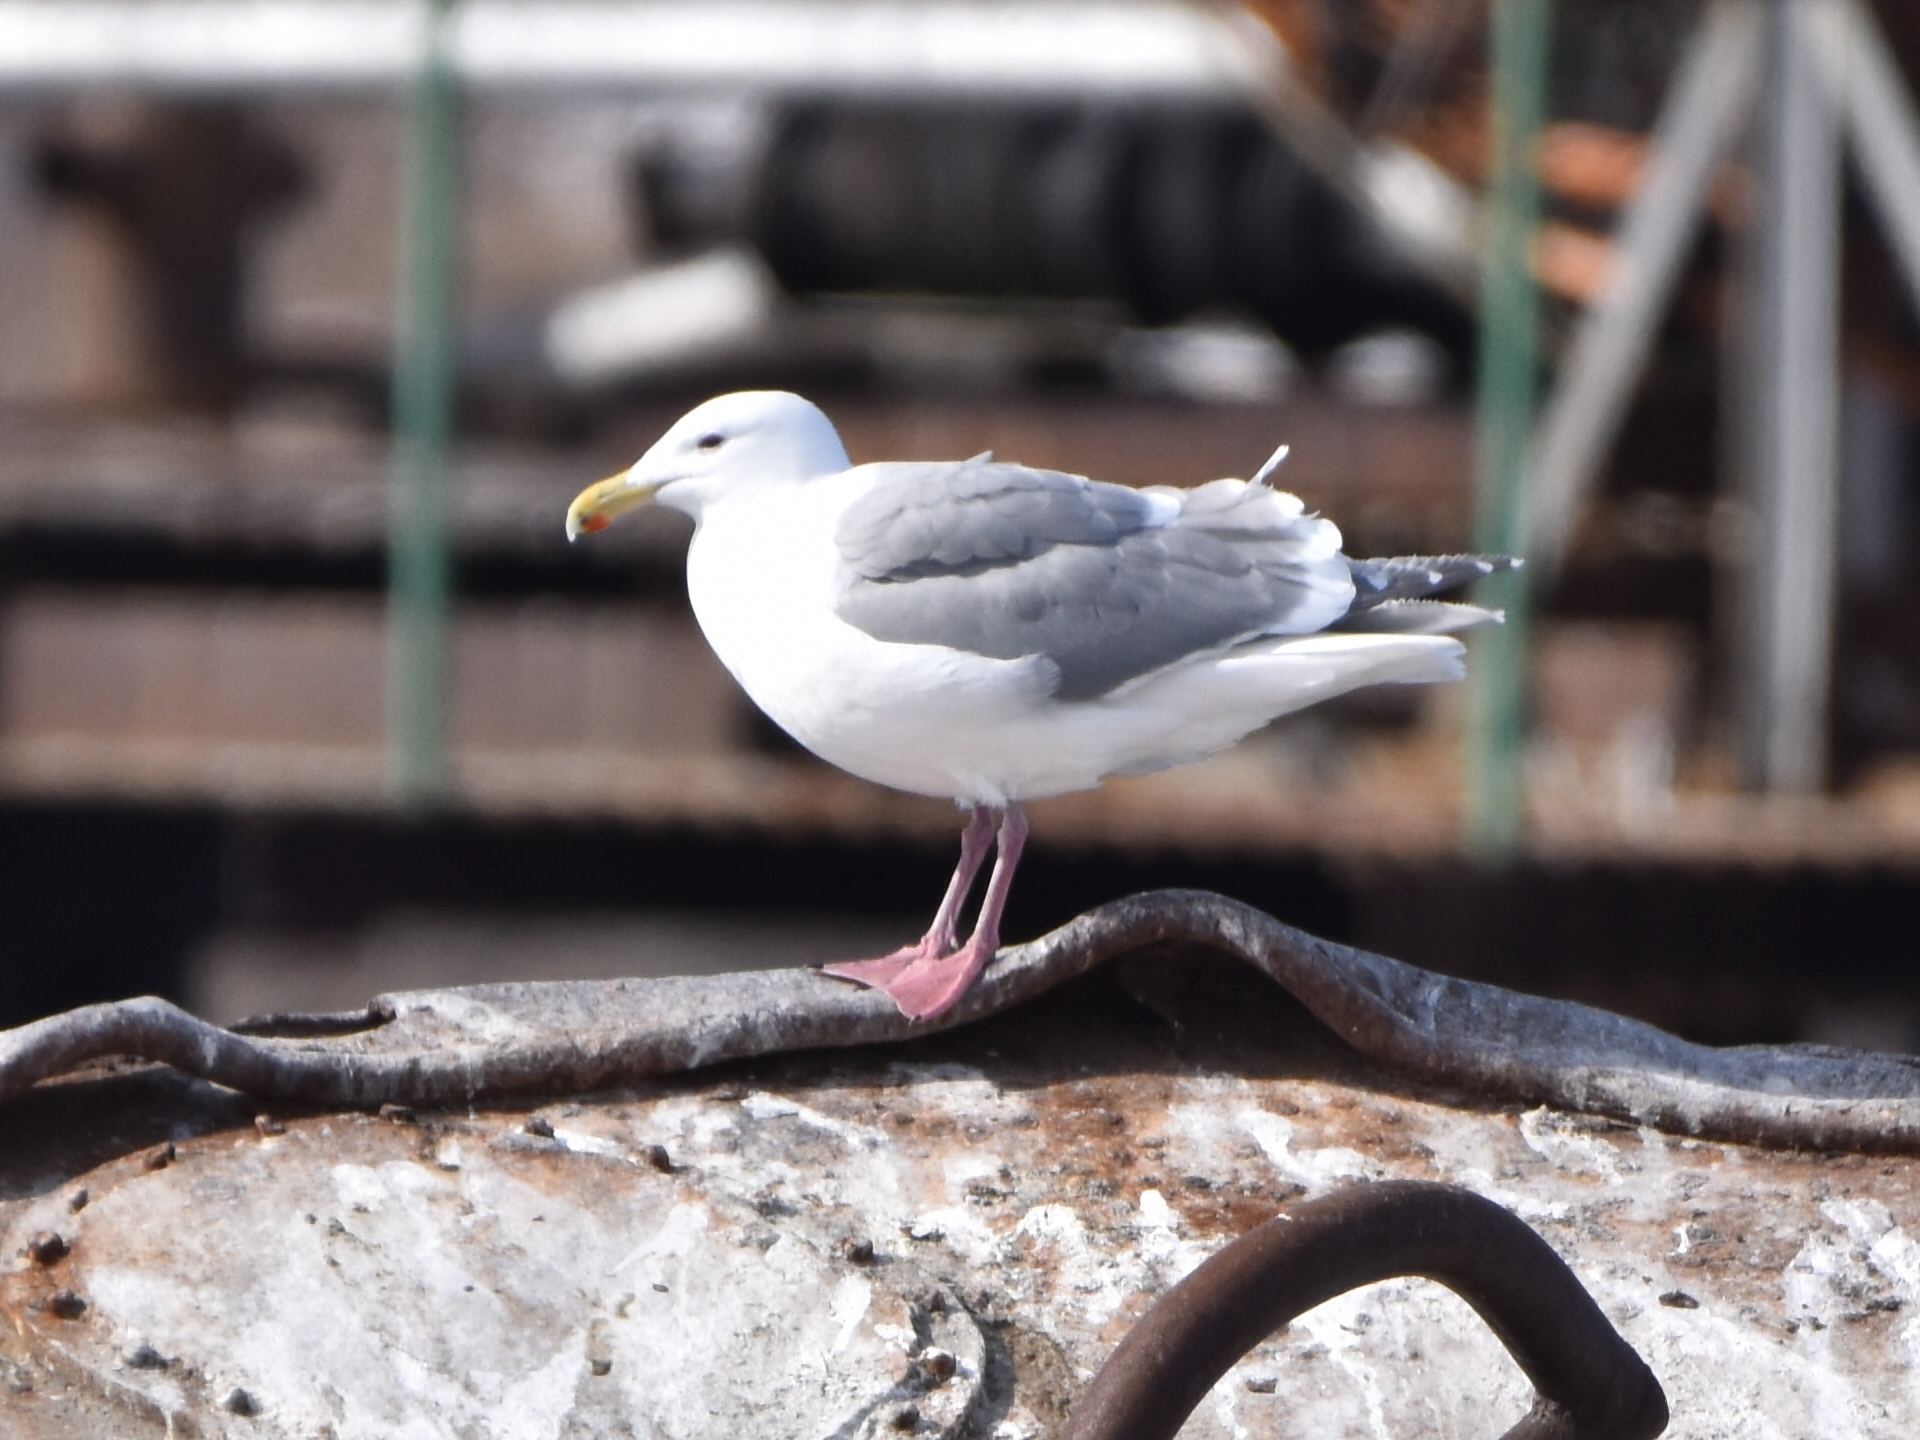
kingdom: Animalia
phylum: Chordata
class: Aves
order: Charadriiformes
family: Laridae
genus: Larus
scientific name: Larus glaucescens
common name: Glaucous-winged gull
